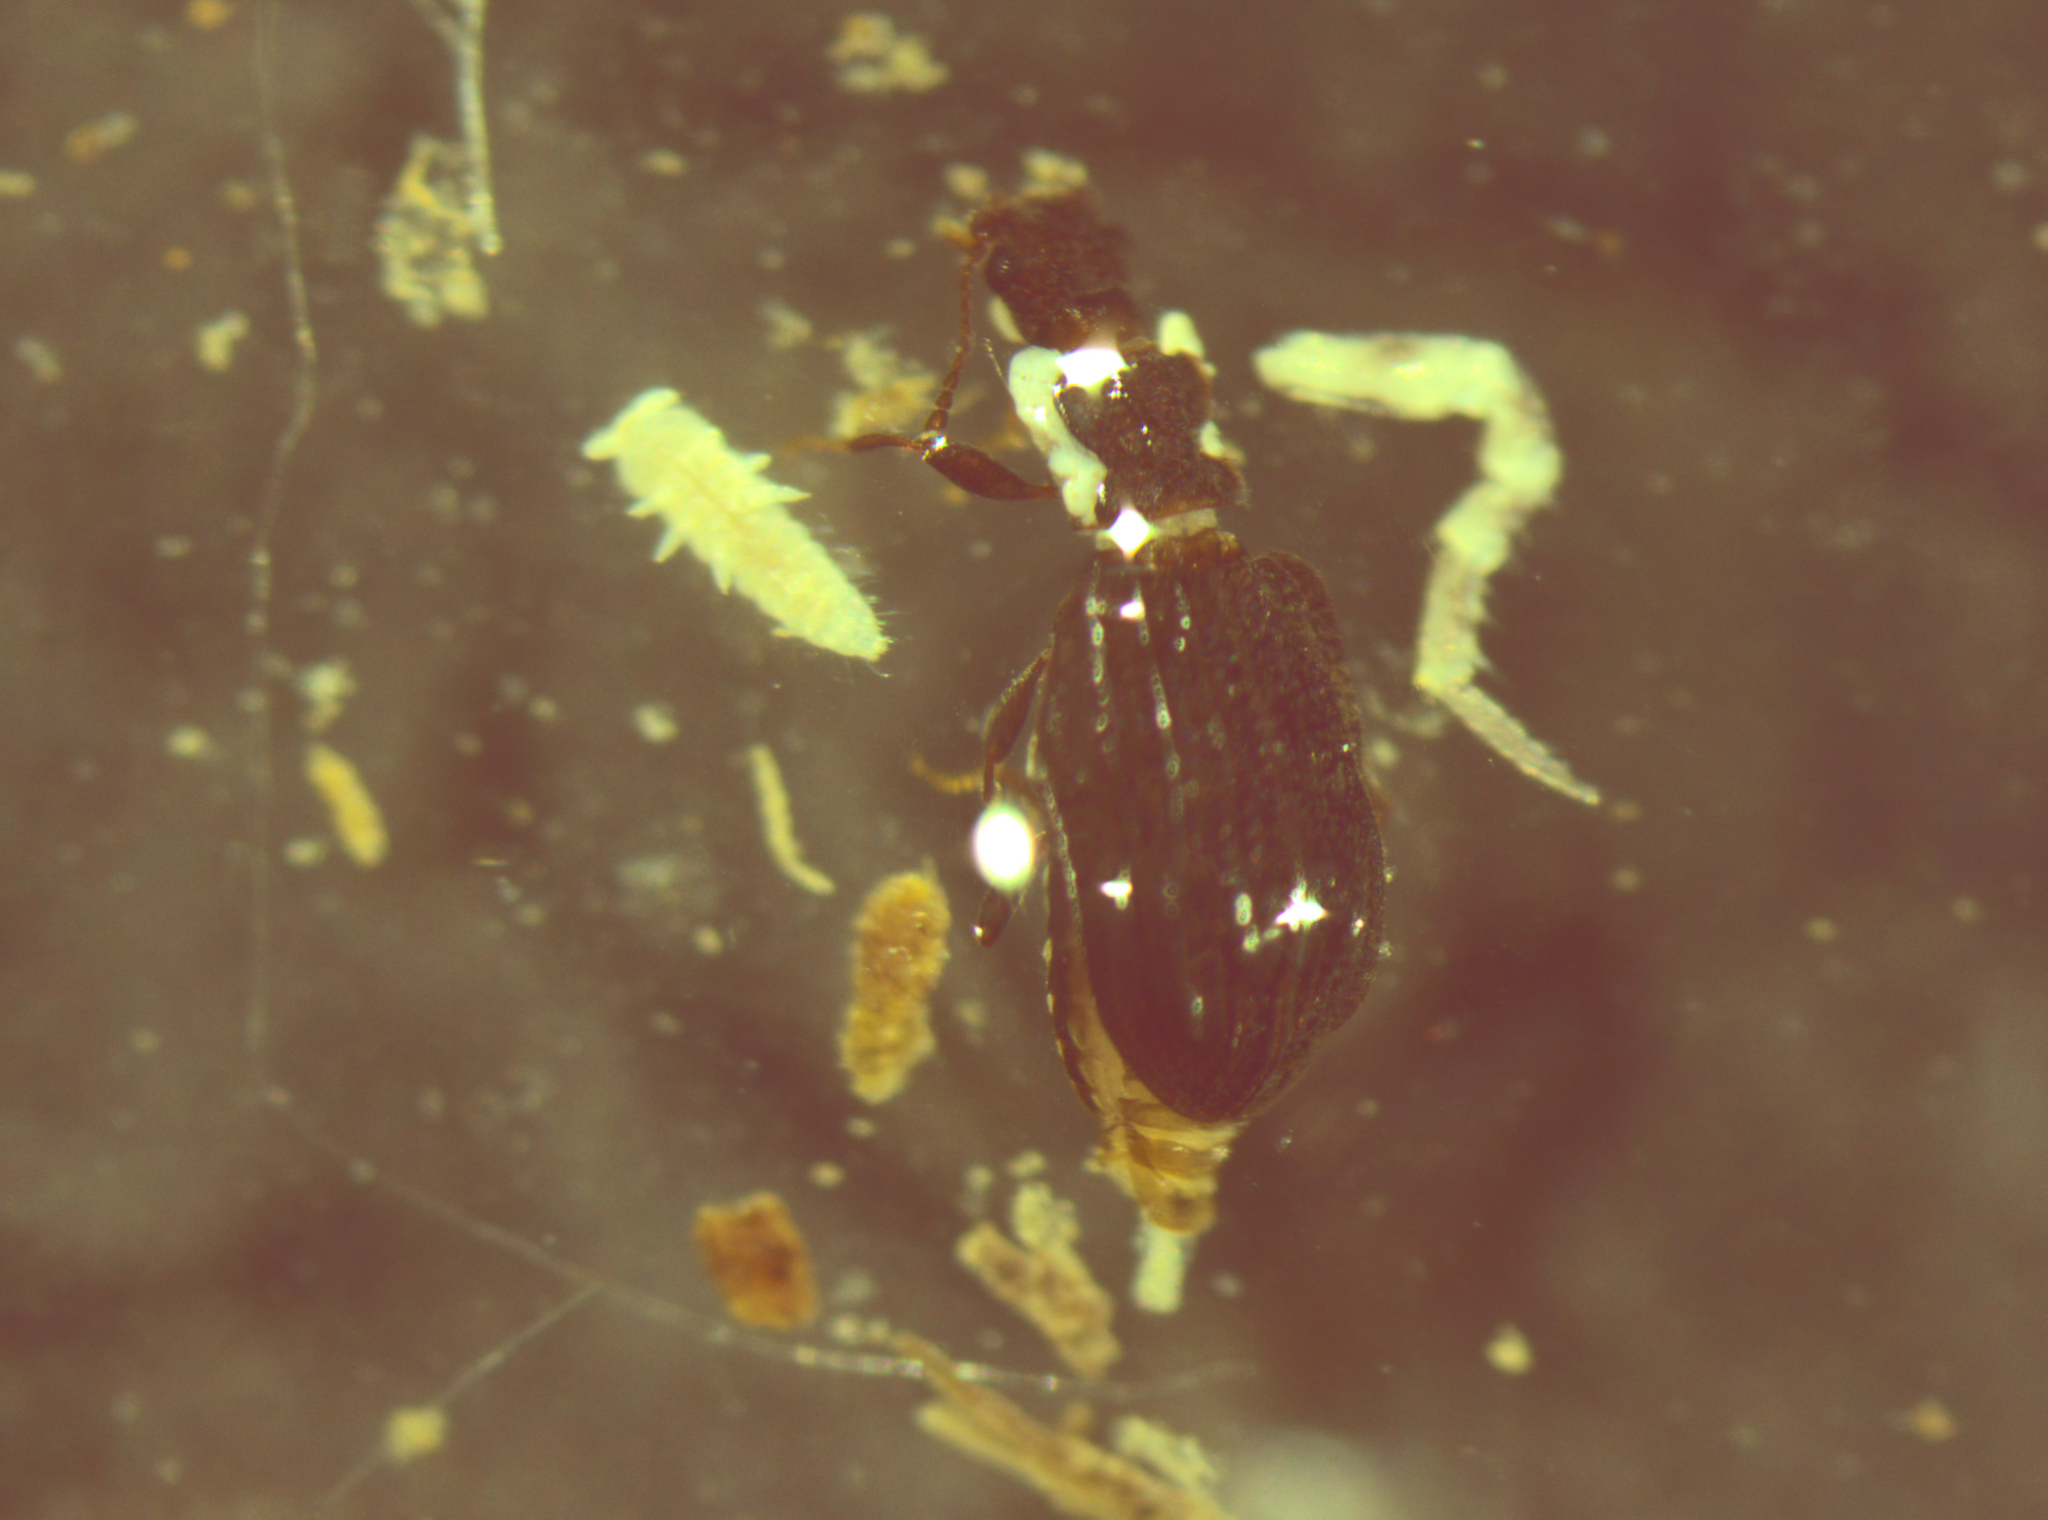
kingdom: Animalia
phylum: Arthropoda
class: Insecta
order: Coleoptera
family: Latridiidae
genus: Dienerella
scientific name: Dienerella costulata
